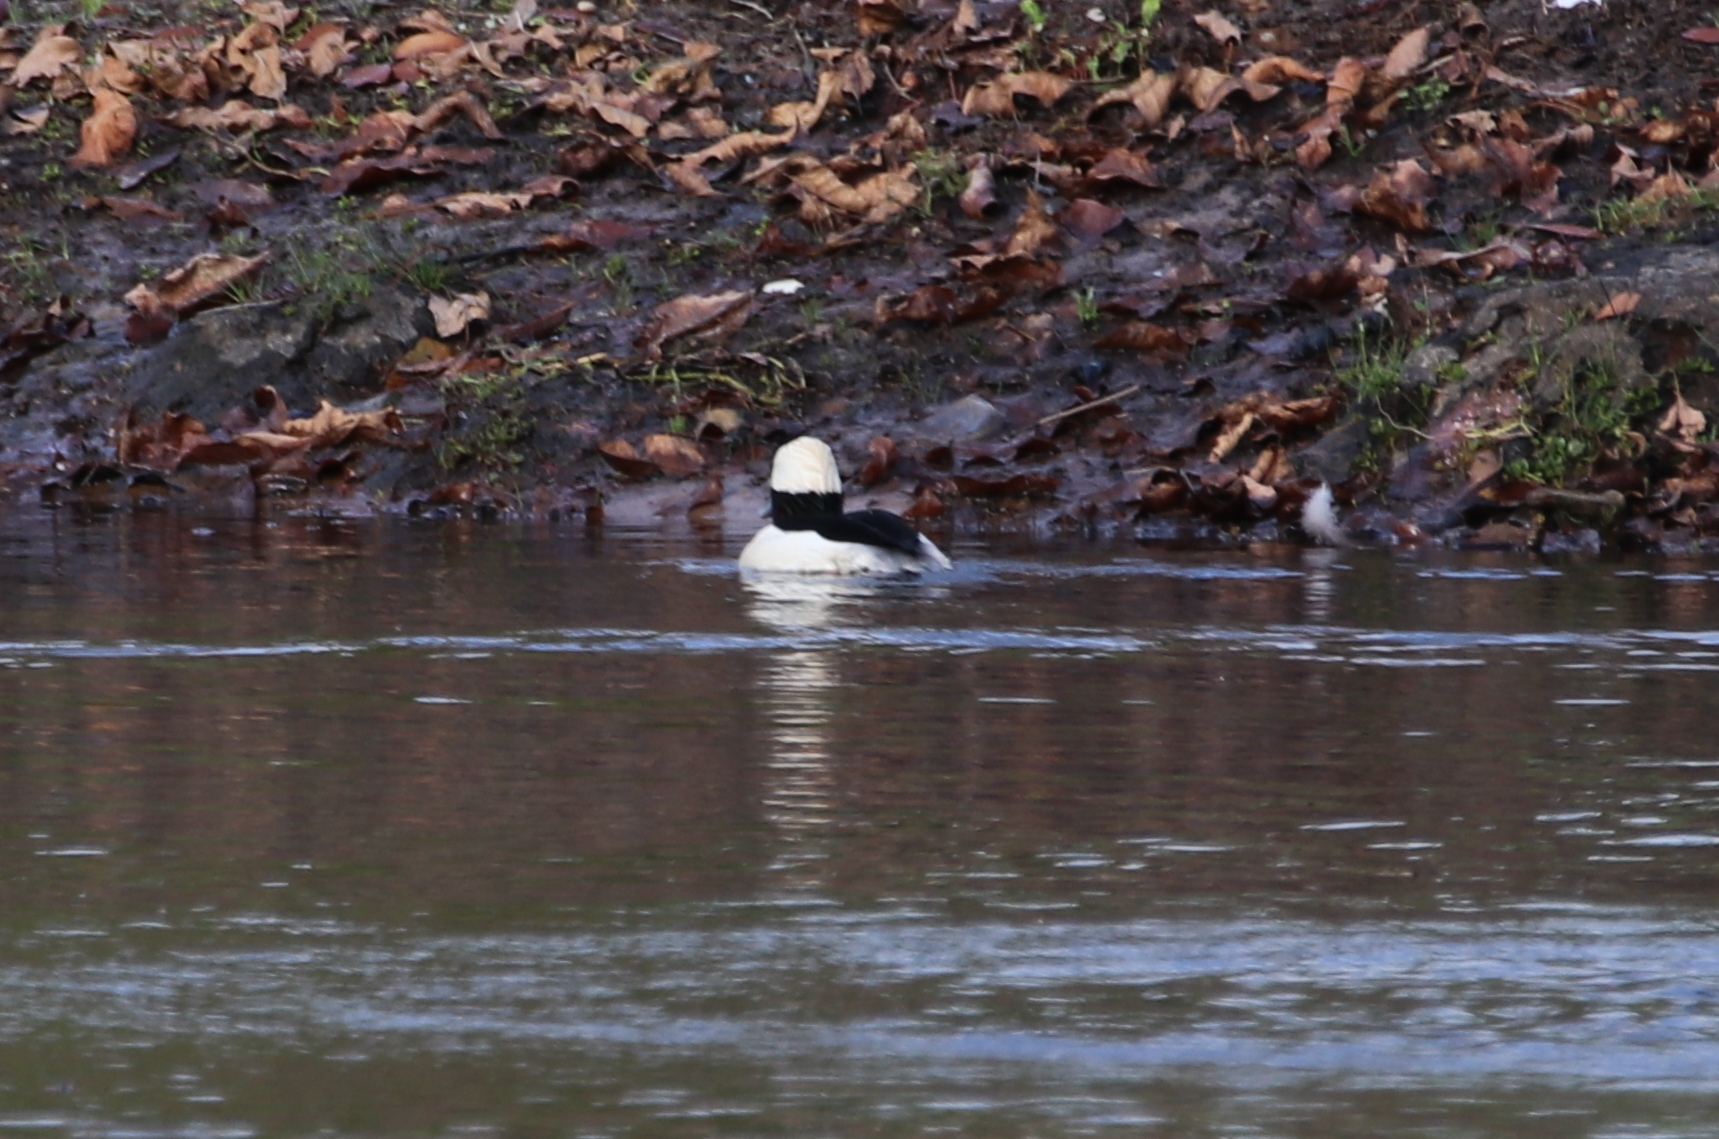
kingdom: Animalia
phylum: Chordata
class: Aves
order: Anseriformes
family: Anatidae
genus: Bucephala
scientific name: Bucephala albeola
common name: Bufflehead
